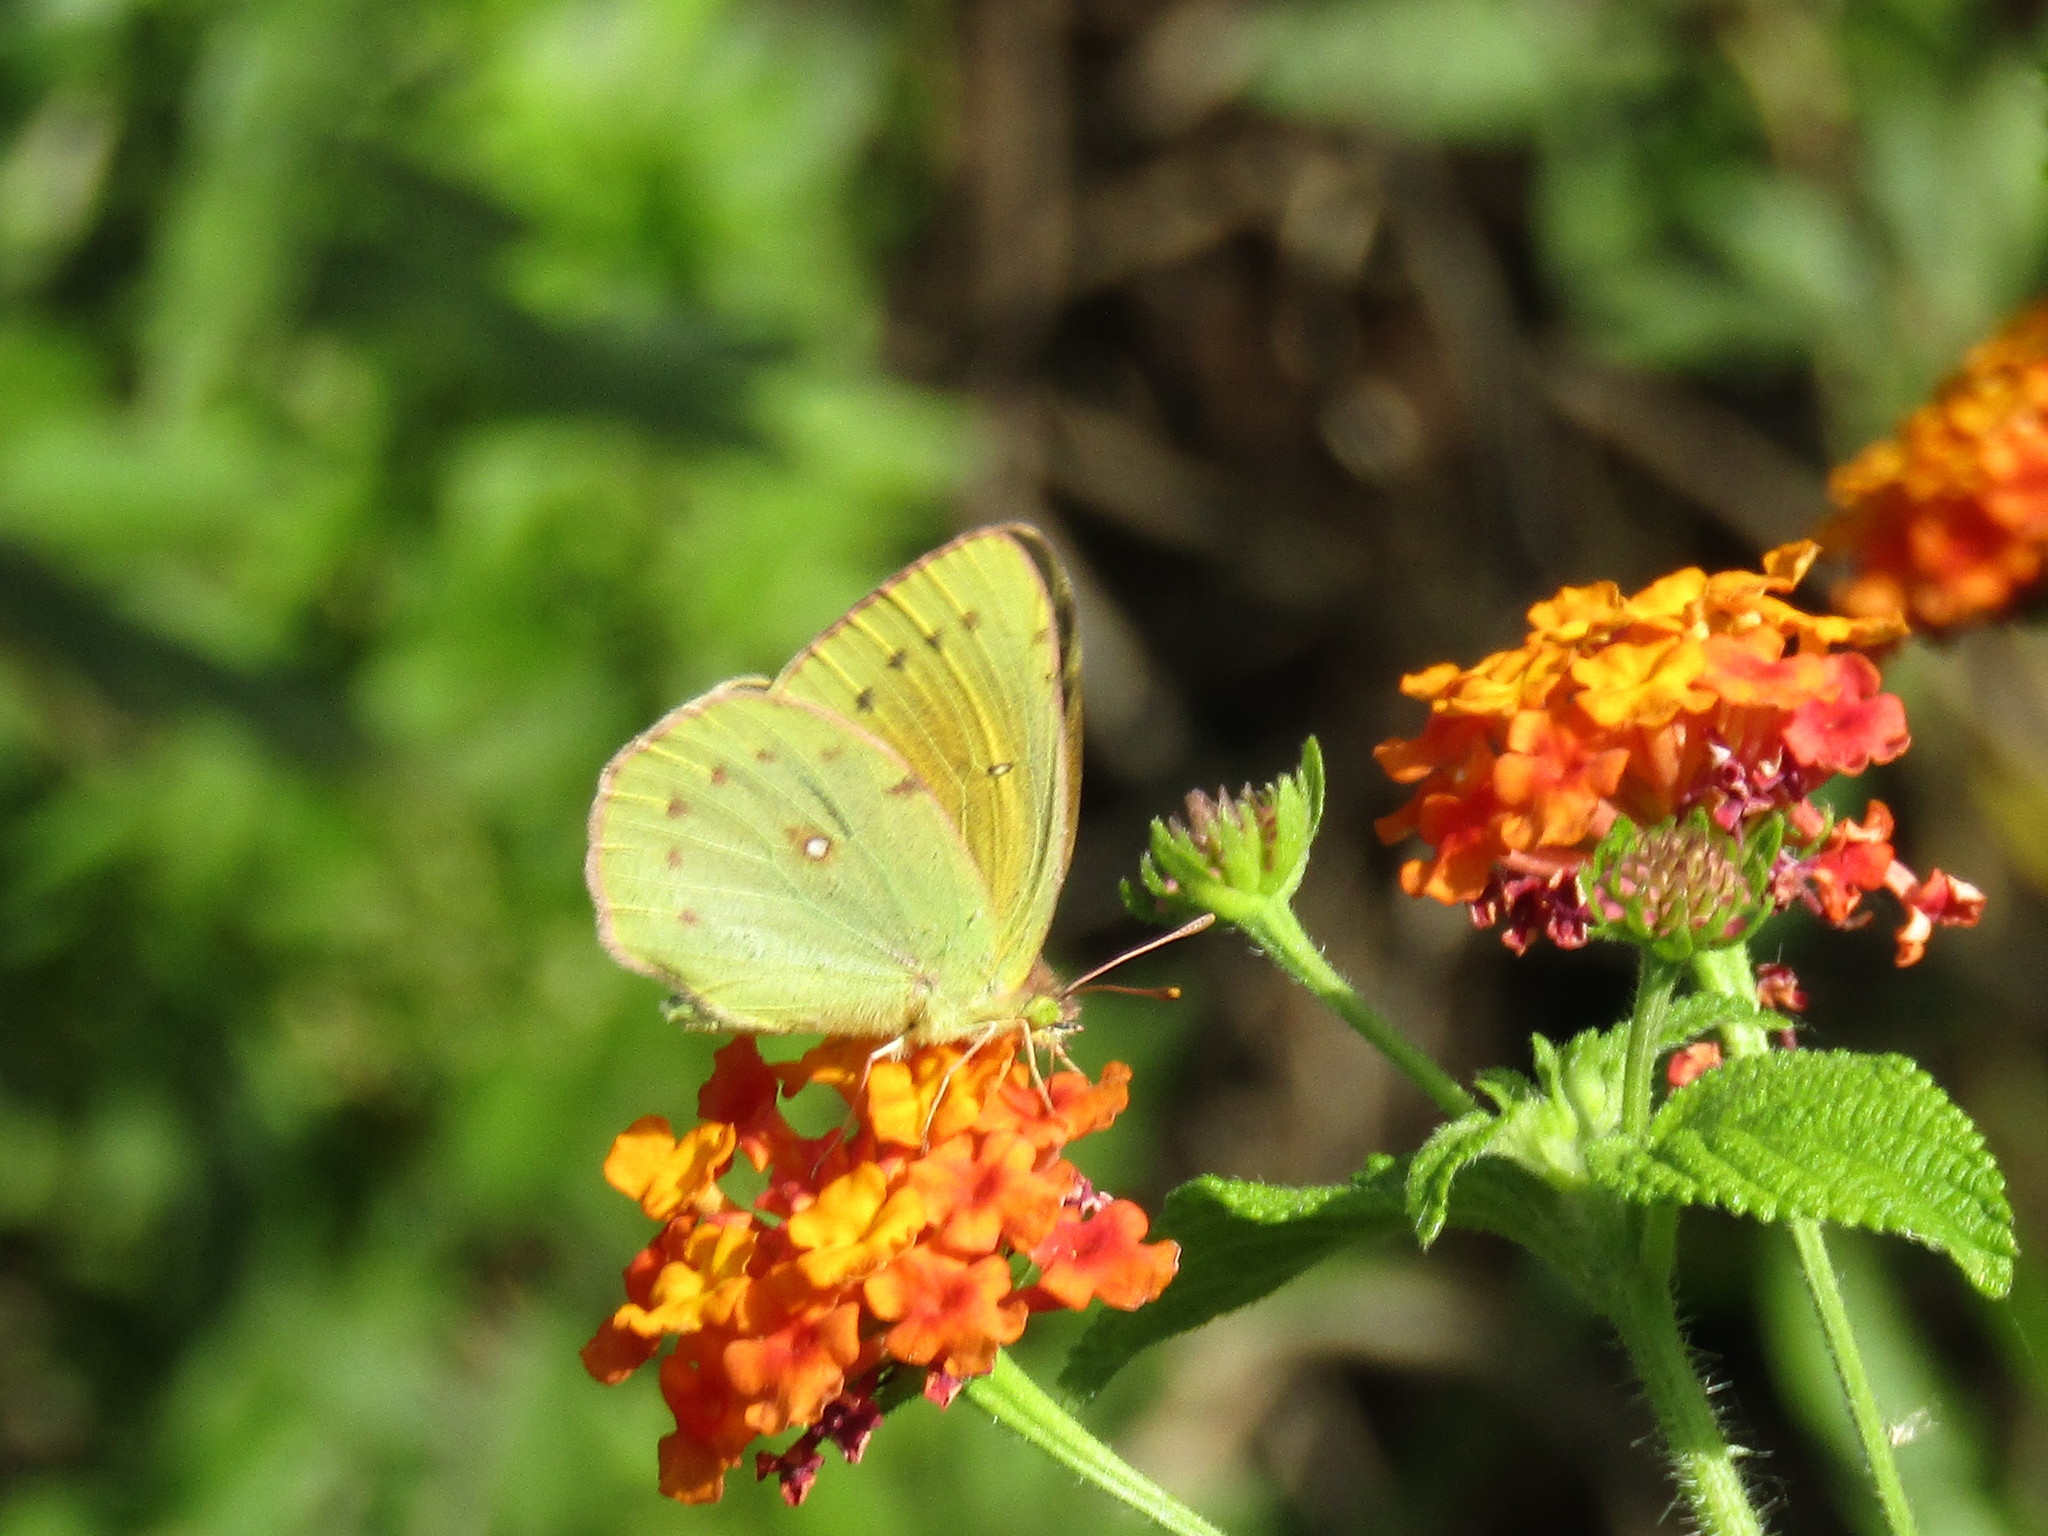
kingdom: Animalia
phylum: Arthropoda
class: Insecta
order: Lepidoptera
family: Pieridae
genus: Colias
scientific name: Colias lesbia
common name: Lesbia clouded yellow
